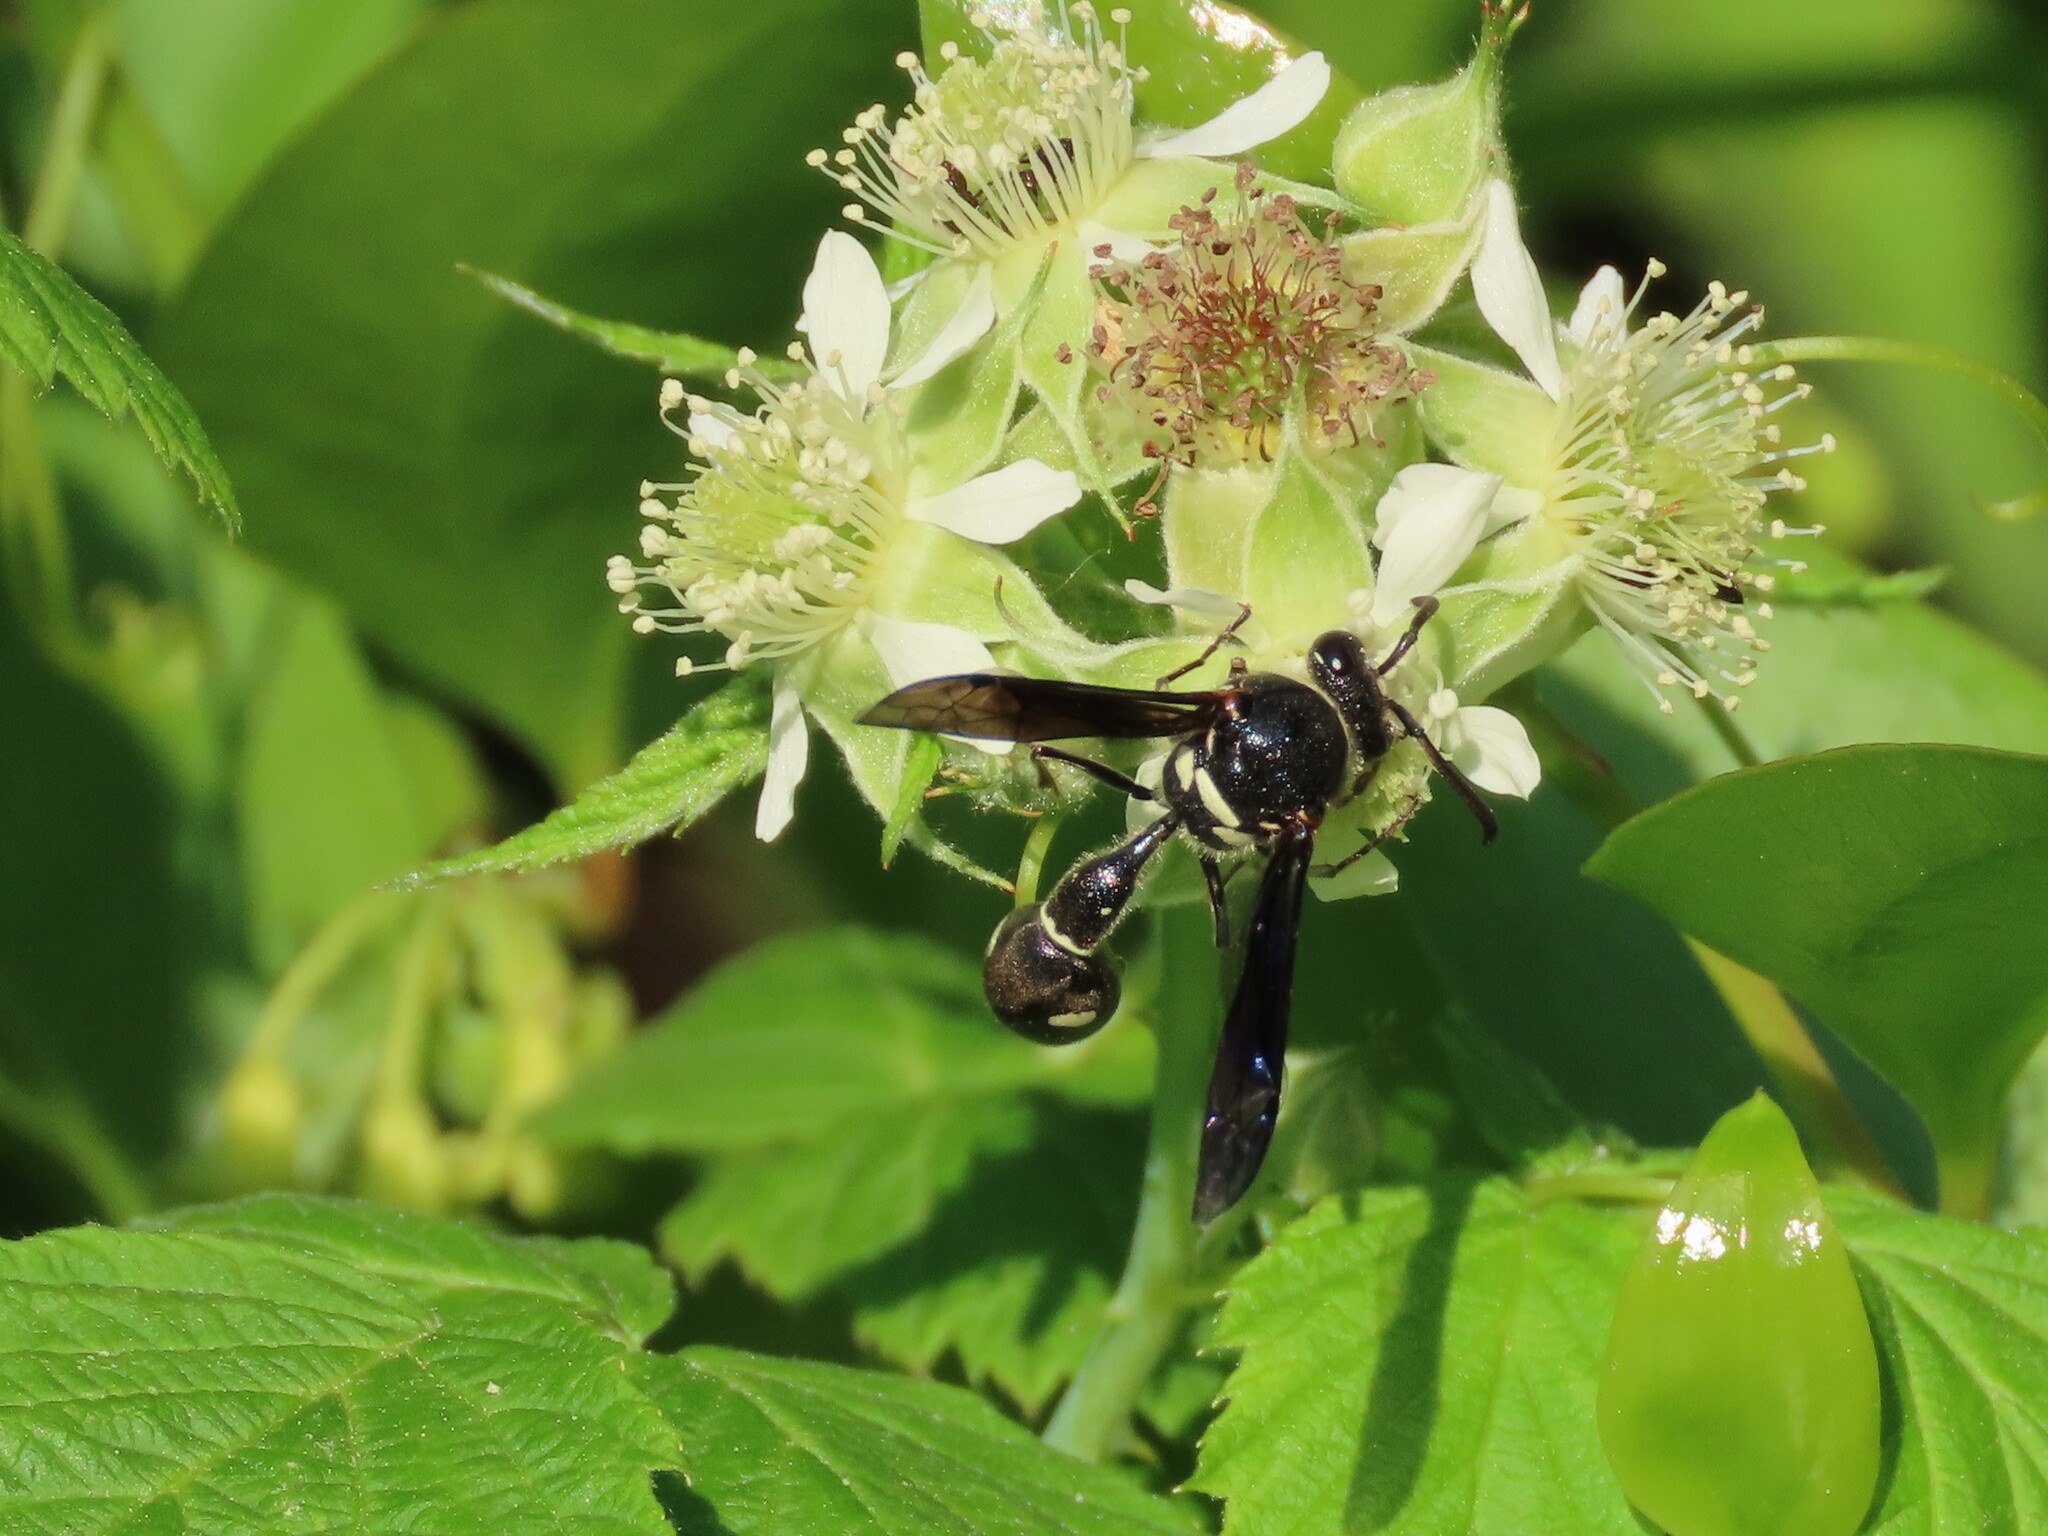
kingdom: Animalia
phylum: Arthropoda
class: Insecta
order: Hymenoptera
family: Vespidae
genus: Eumenes
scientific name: Eumenes fraternus
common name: Fraternal potter wasp
